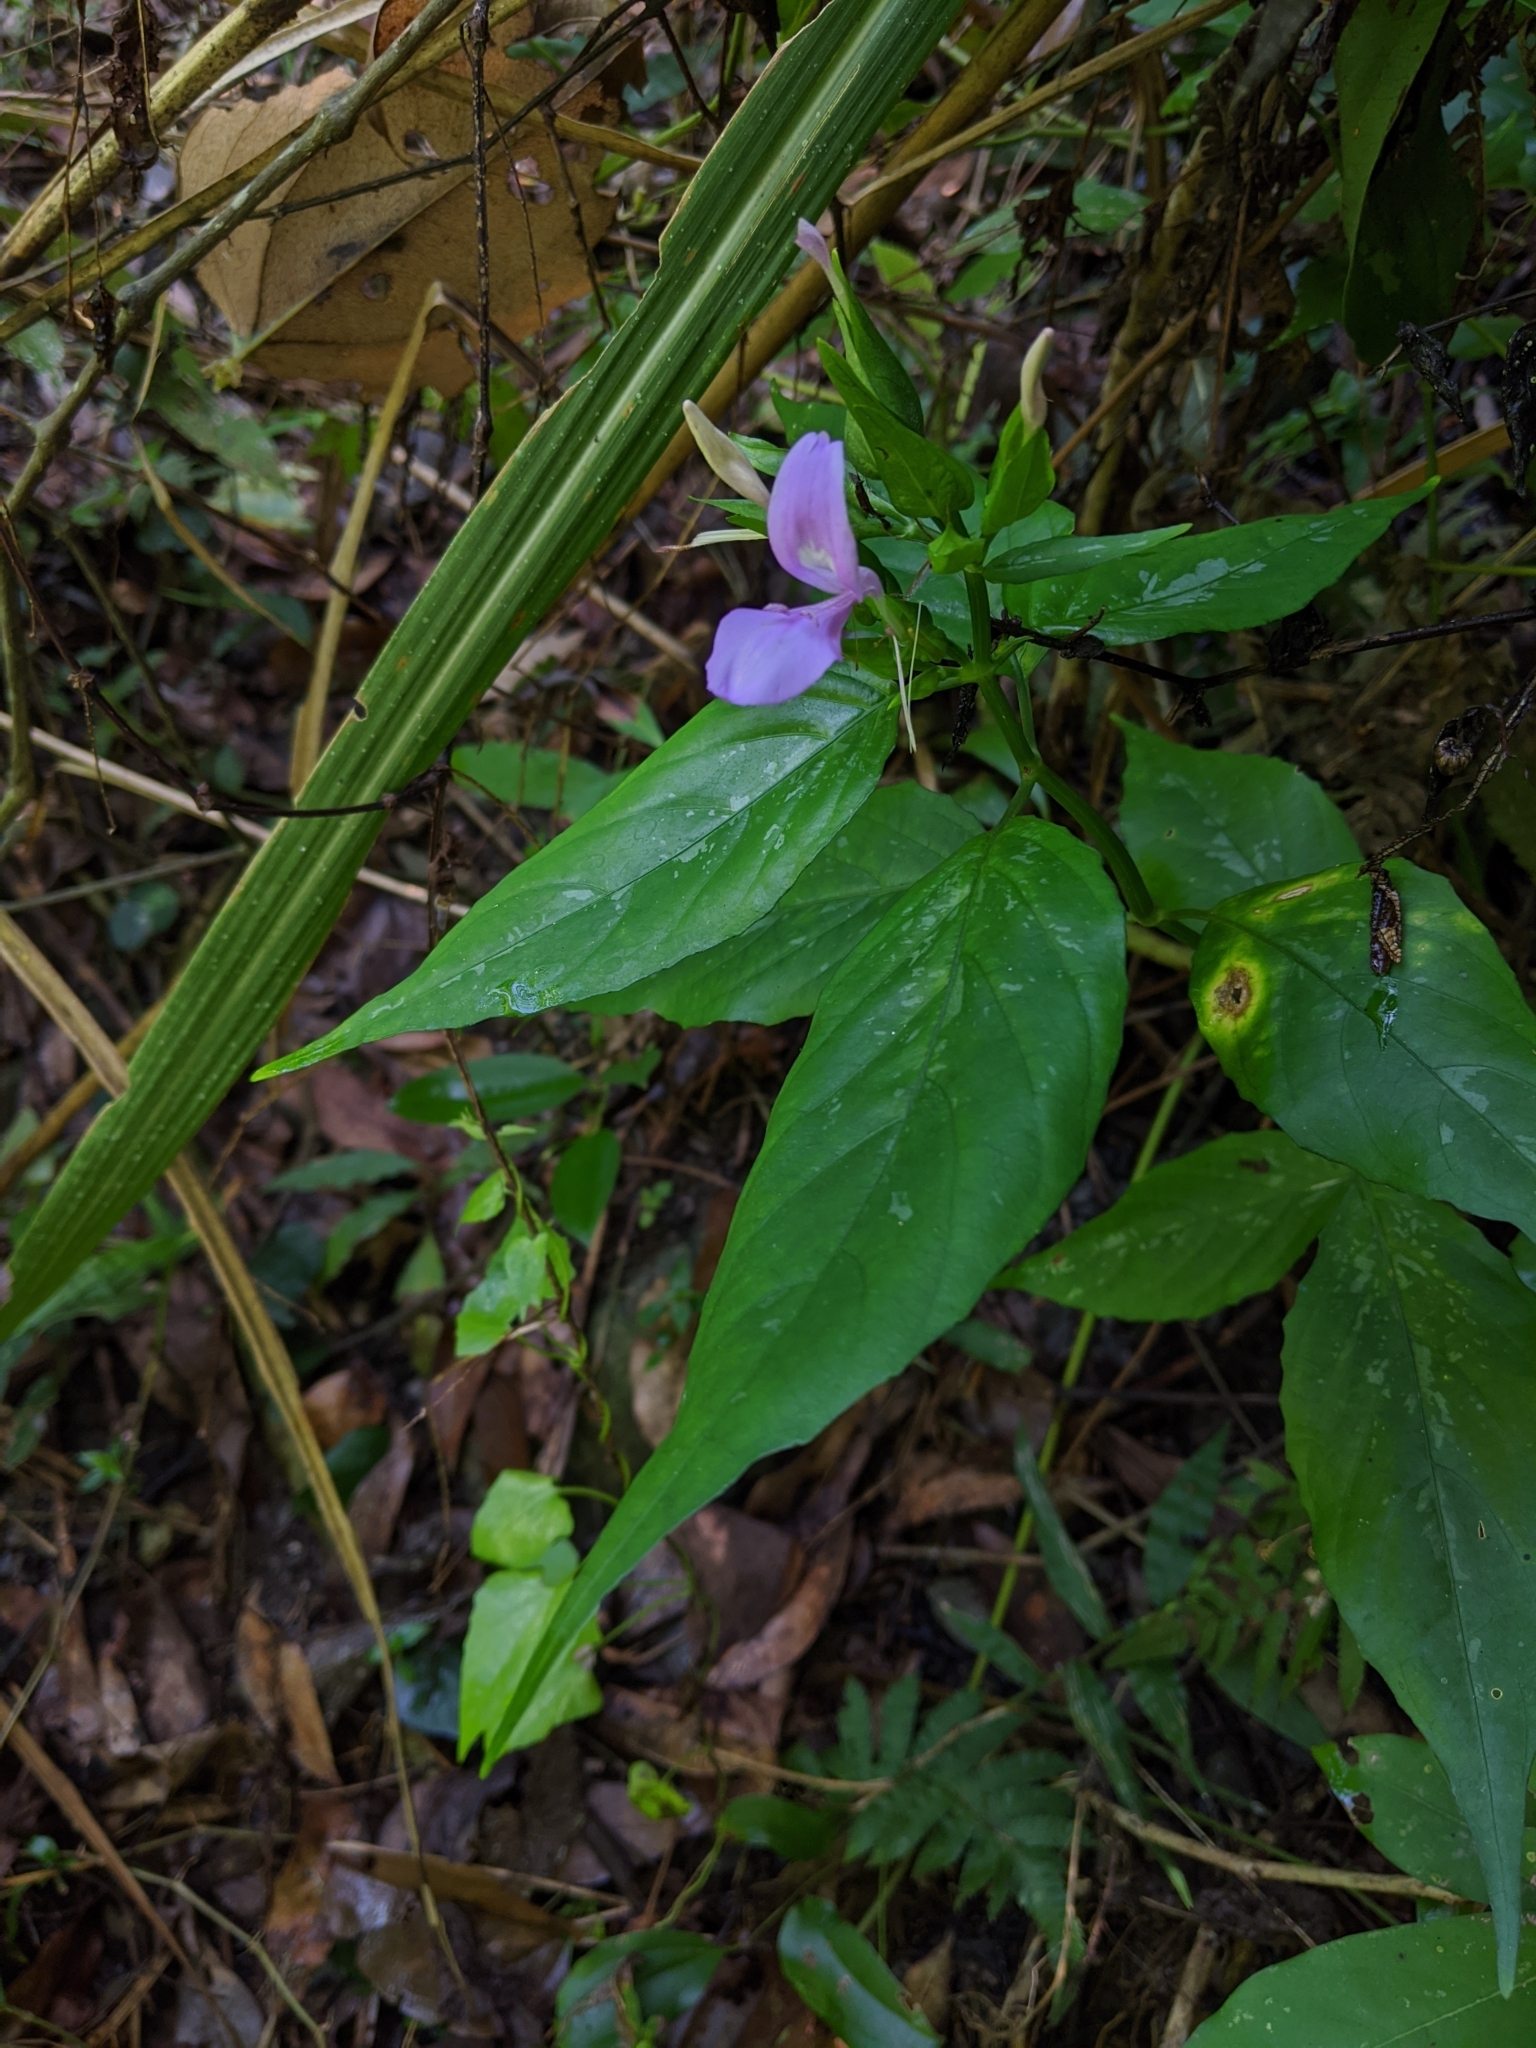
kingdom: Plantae
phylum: Tracheophyta
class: Magnoliopsida
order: Lamiales
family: Acanthaceae
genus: Dicliptera
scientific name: Dicliptera tinctoria
